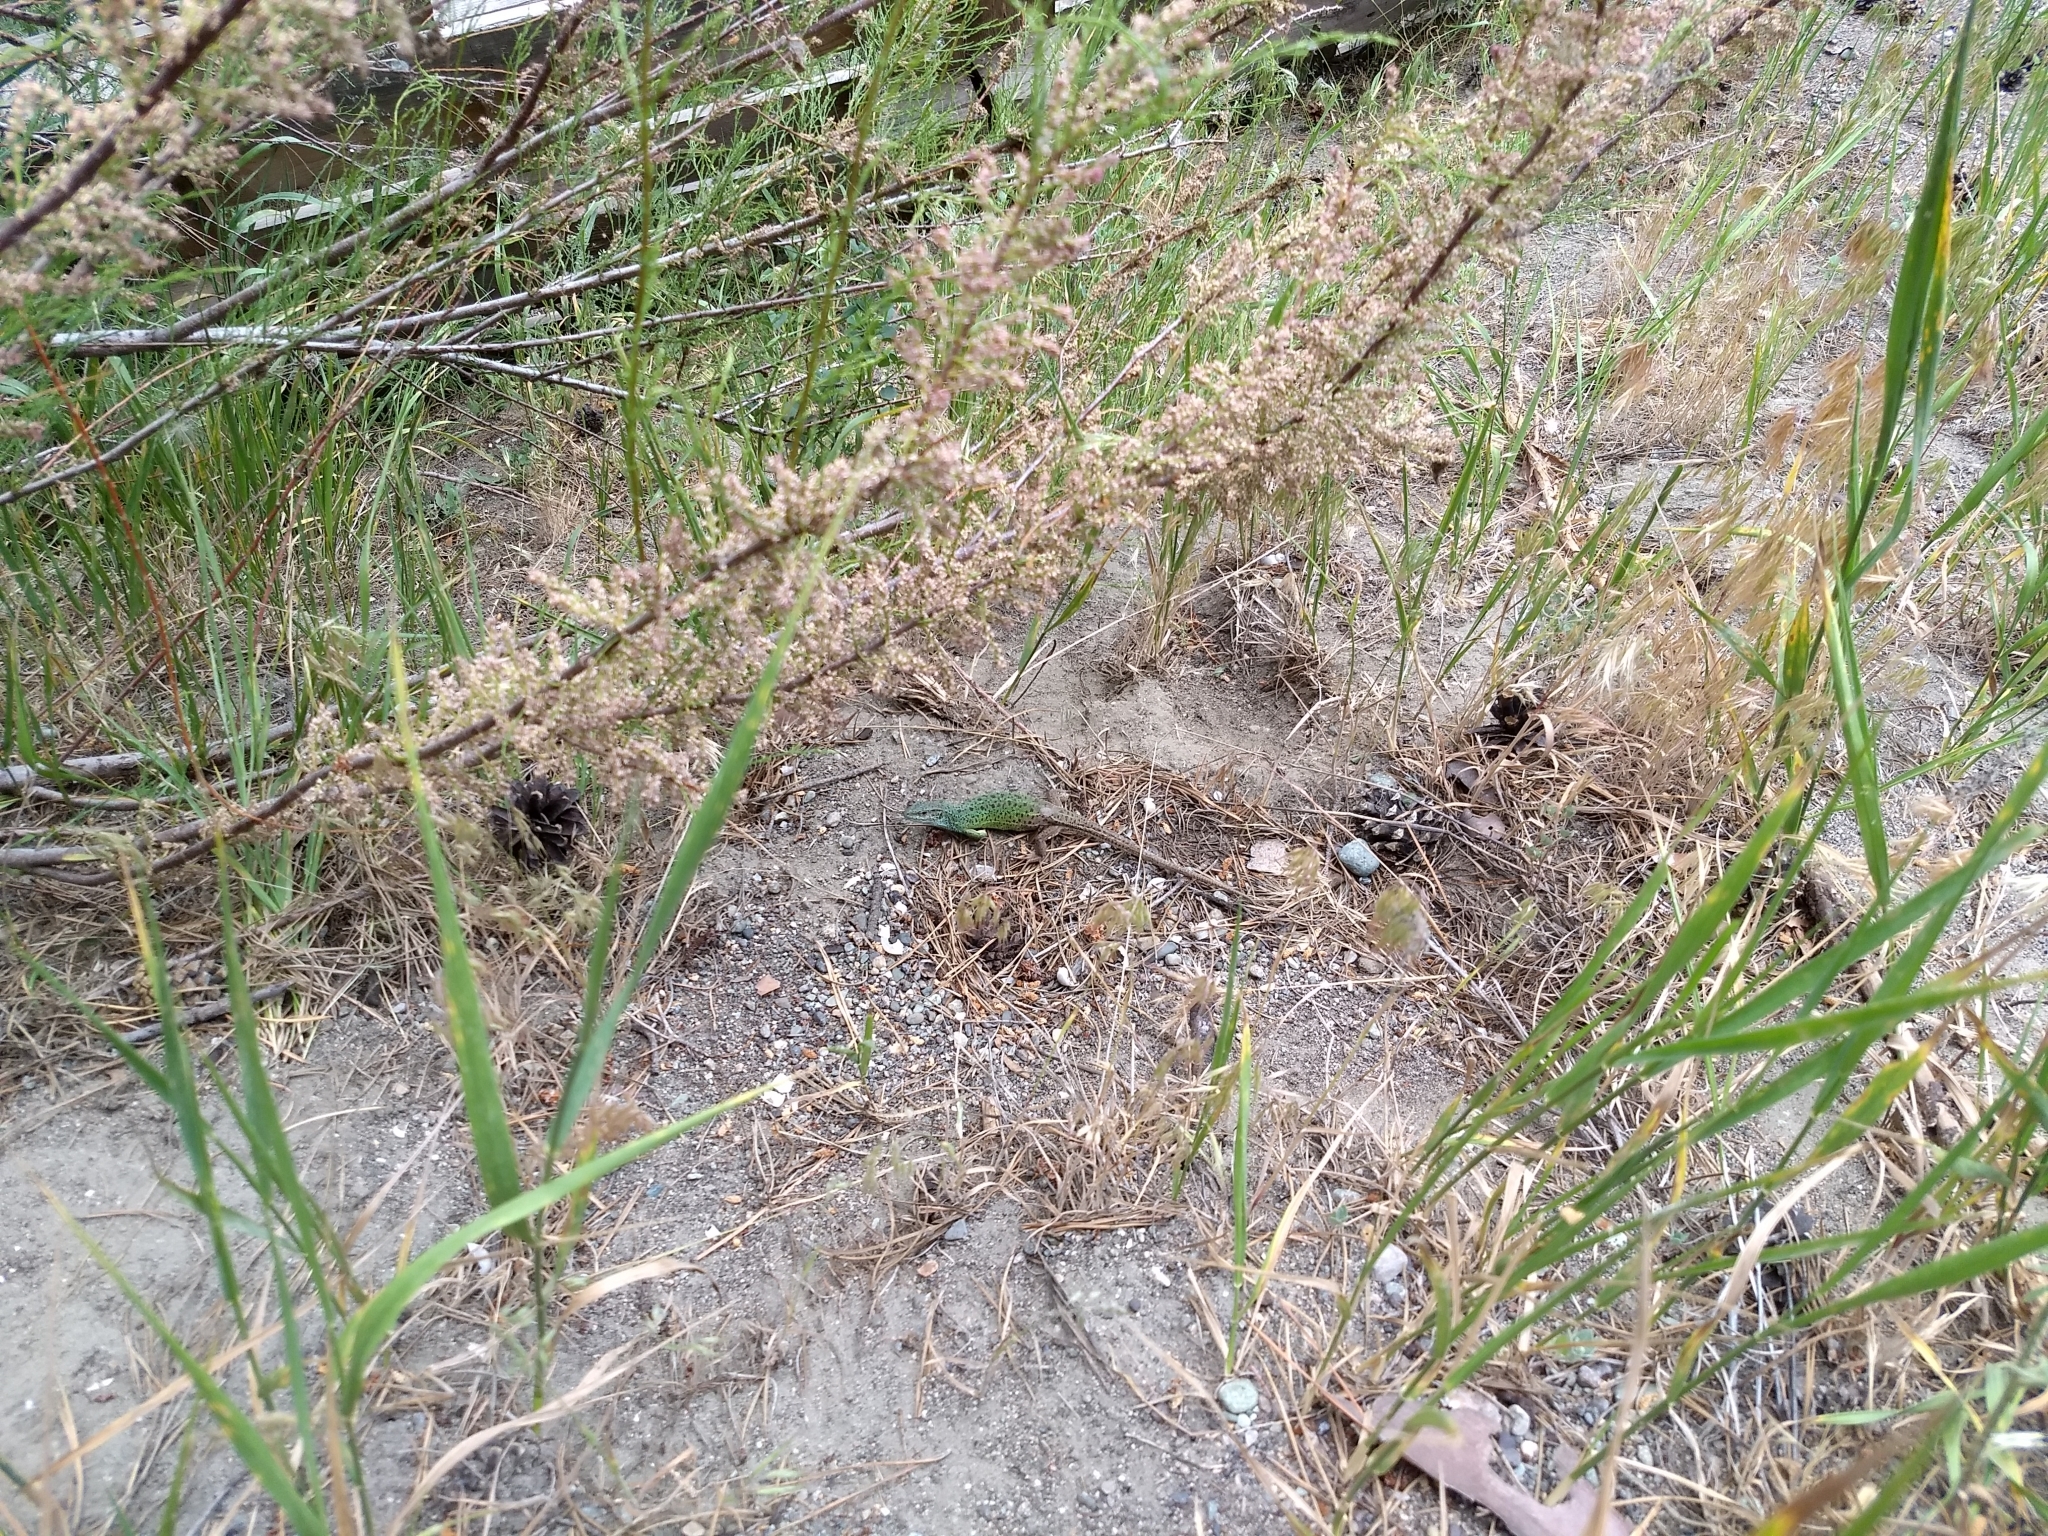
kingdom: Animalia
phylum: Chordata
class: Squamata
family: Lacertidae
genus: Lacerta
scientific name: Lacerta strigata
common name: Caspian green lizard
